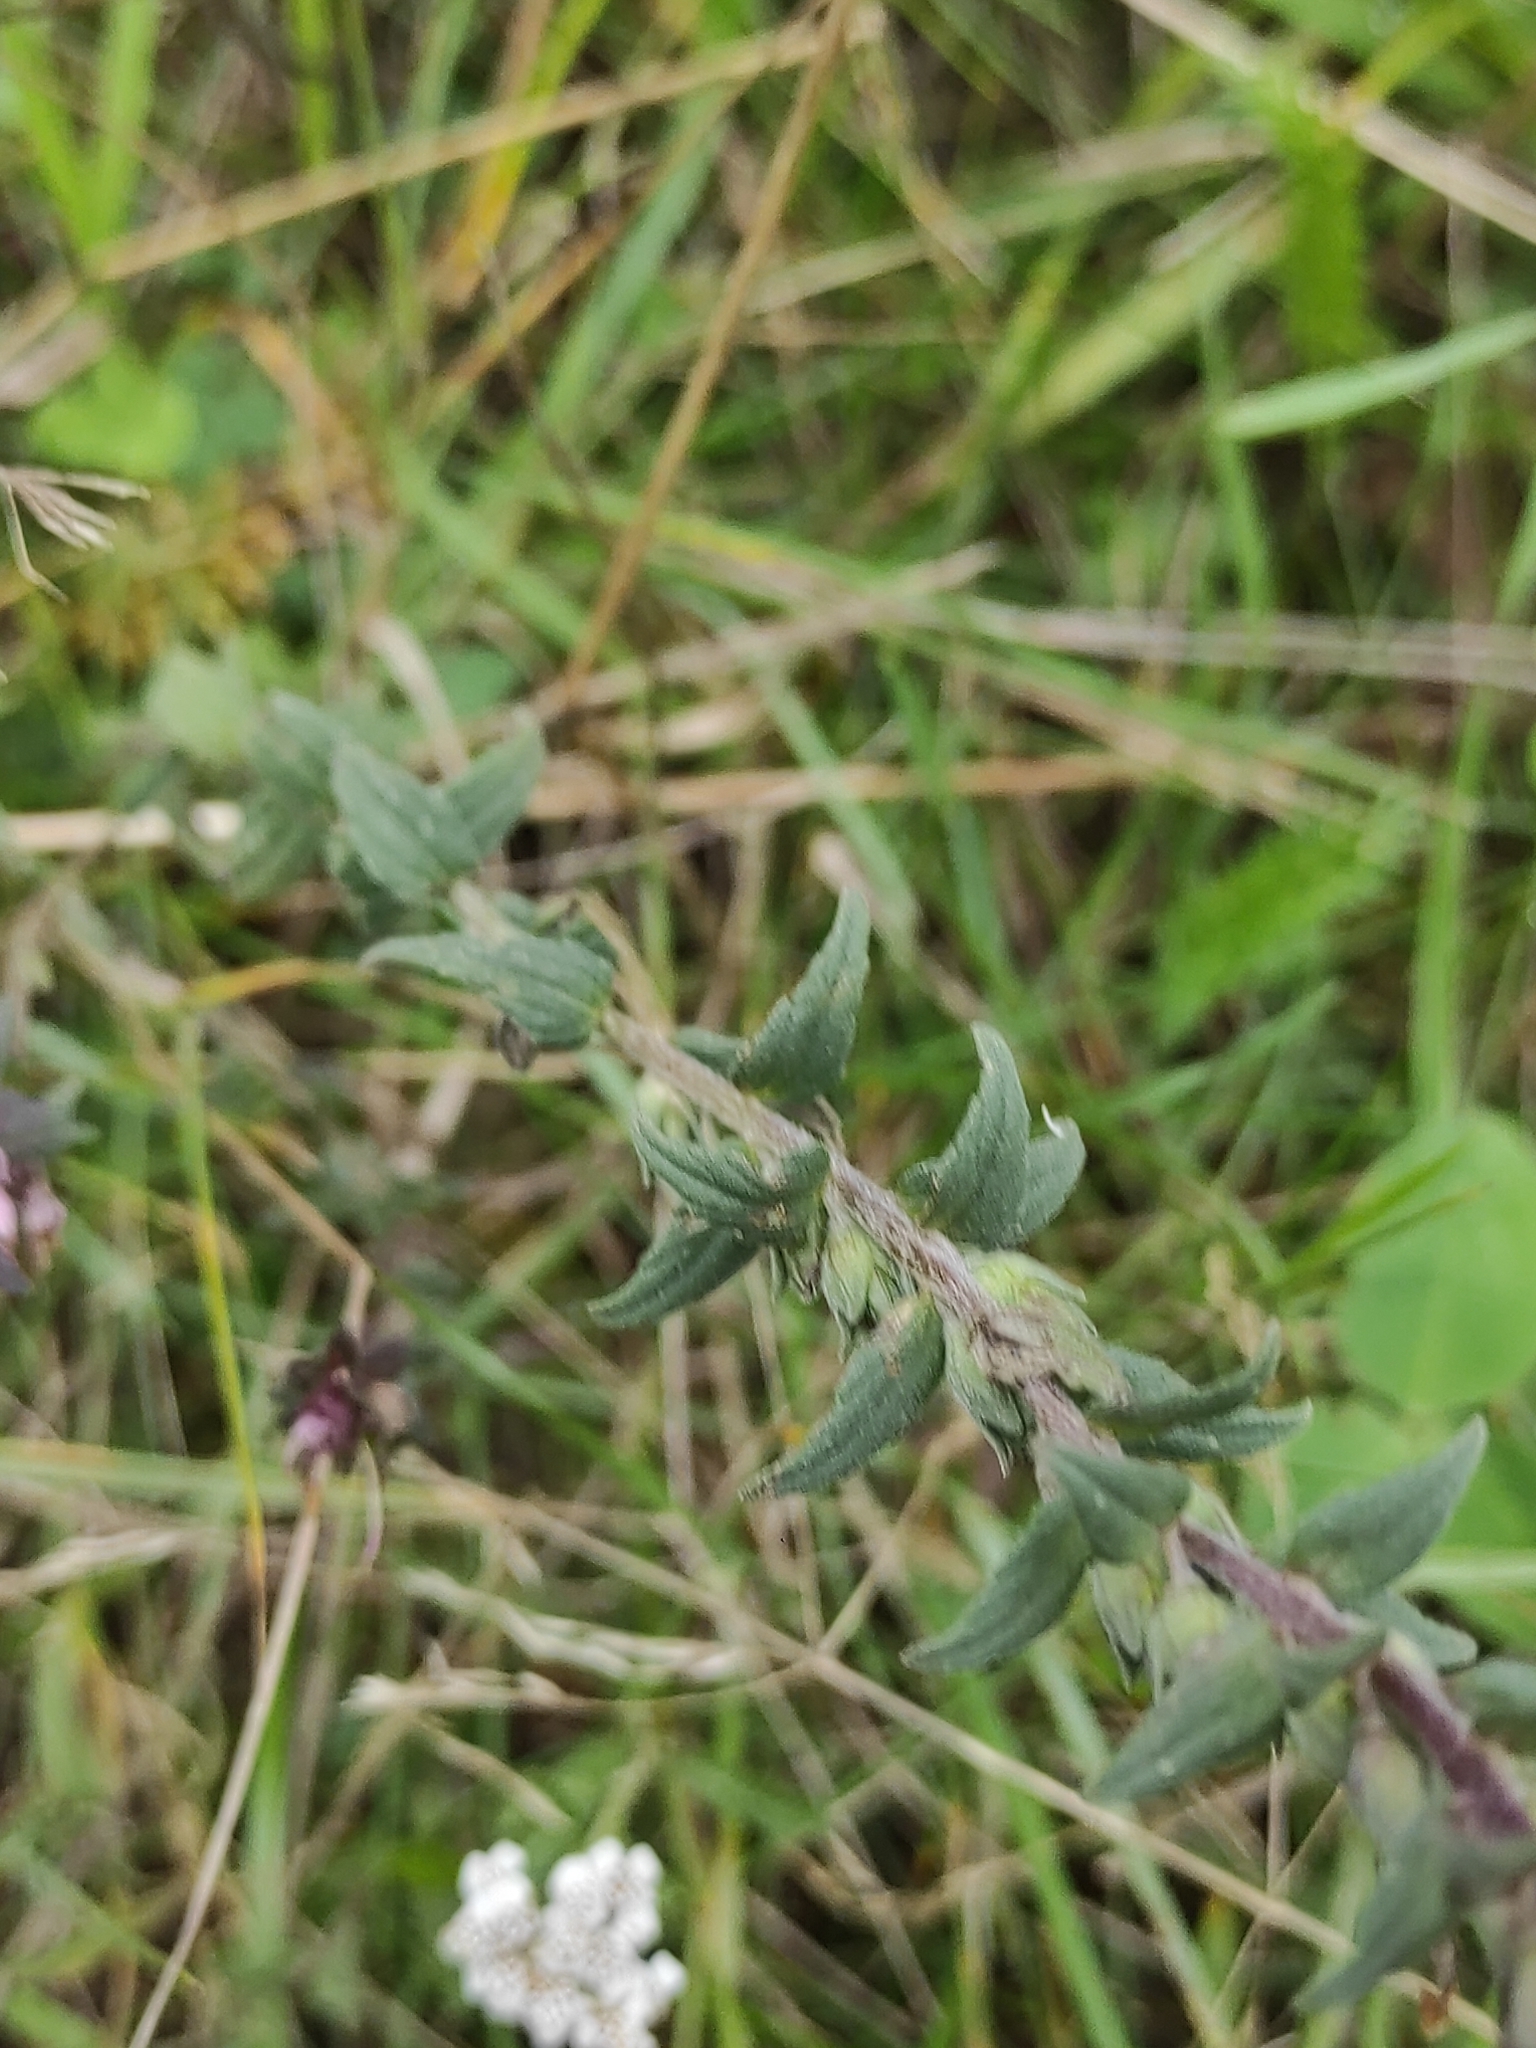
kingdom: Plantae
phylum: Tracheophyta
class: Magnoliopsida
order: Lamiales
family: Orobanchaceae
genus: Odontites
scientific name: Odontites vulgaris
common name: Broomrape
